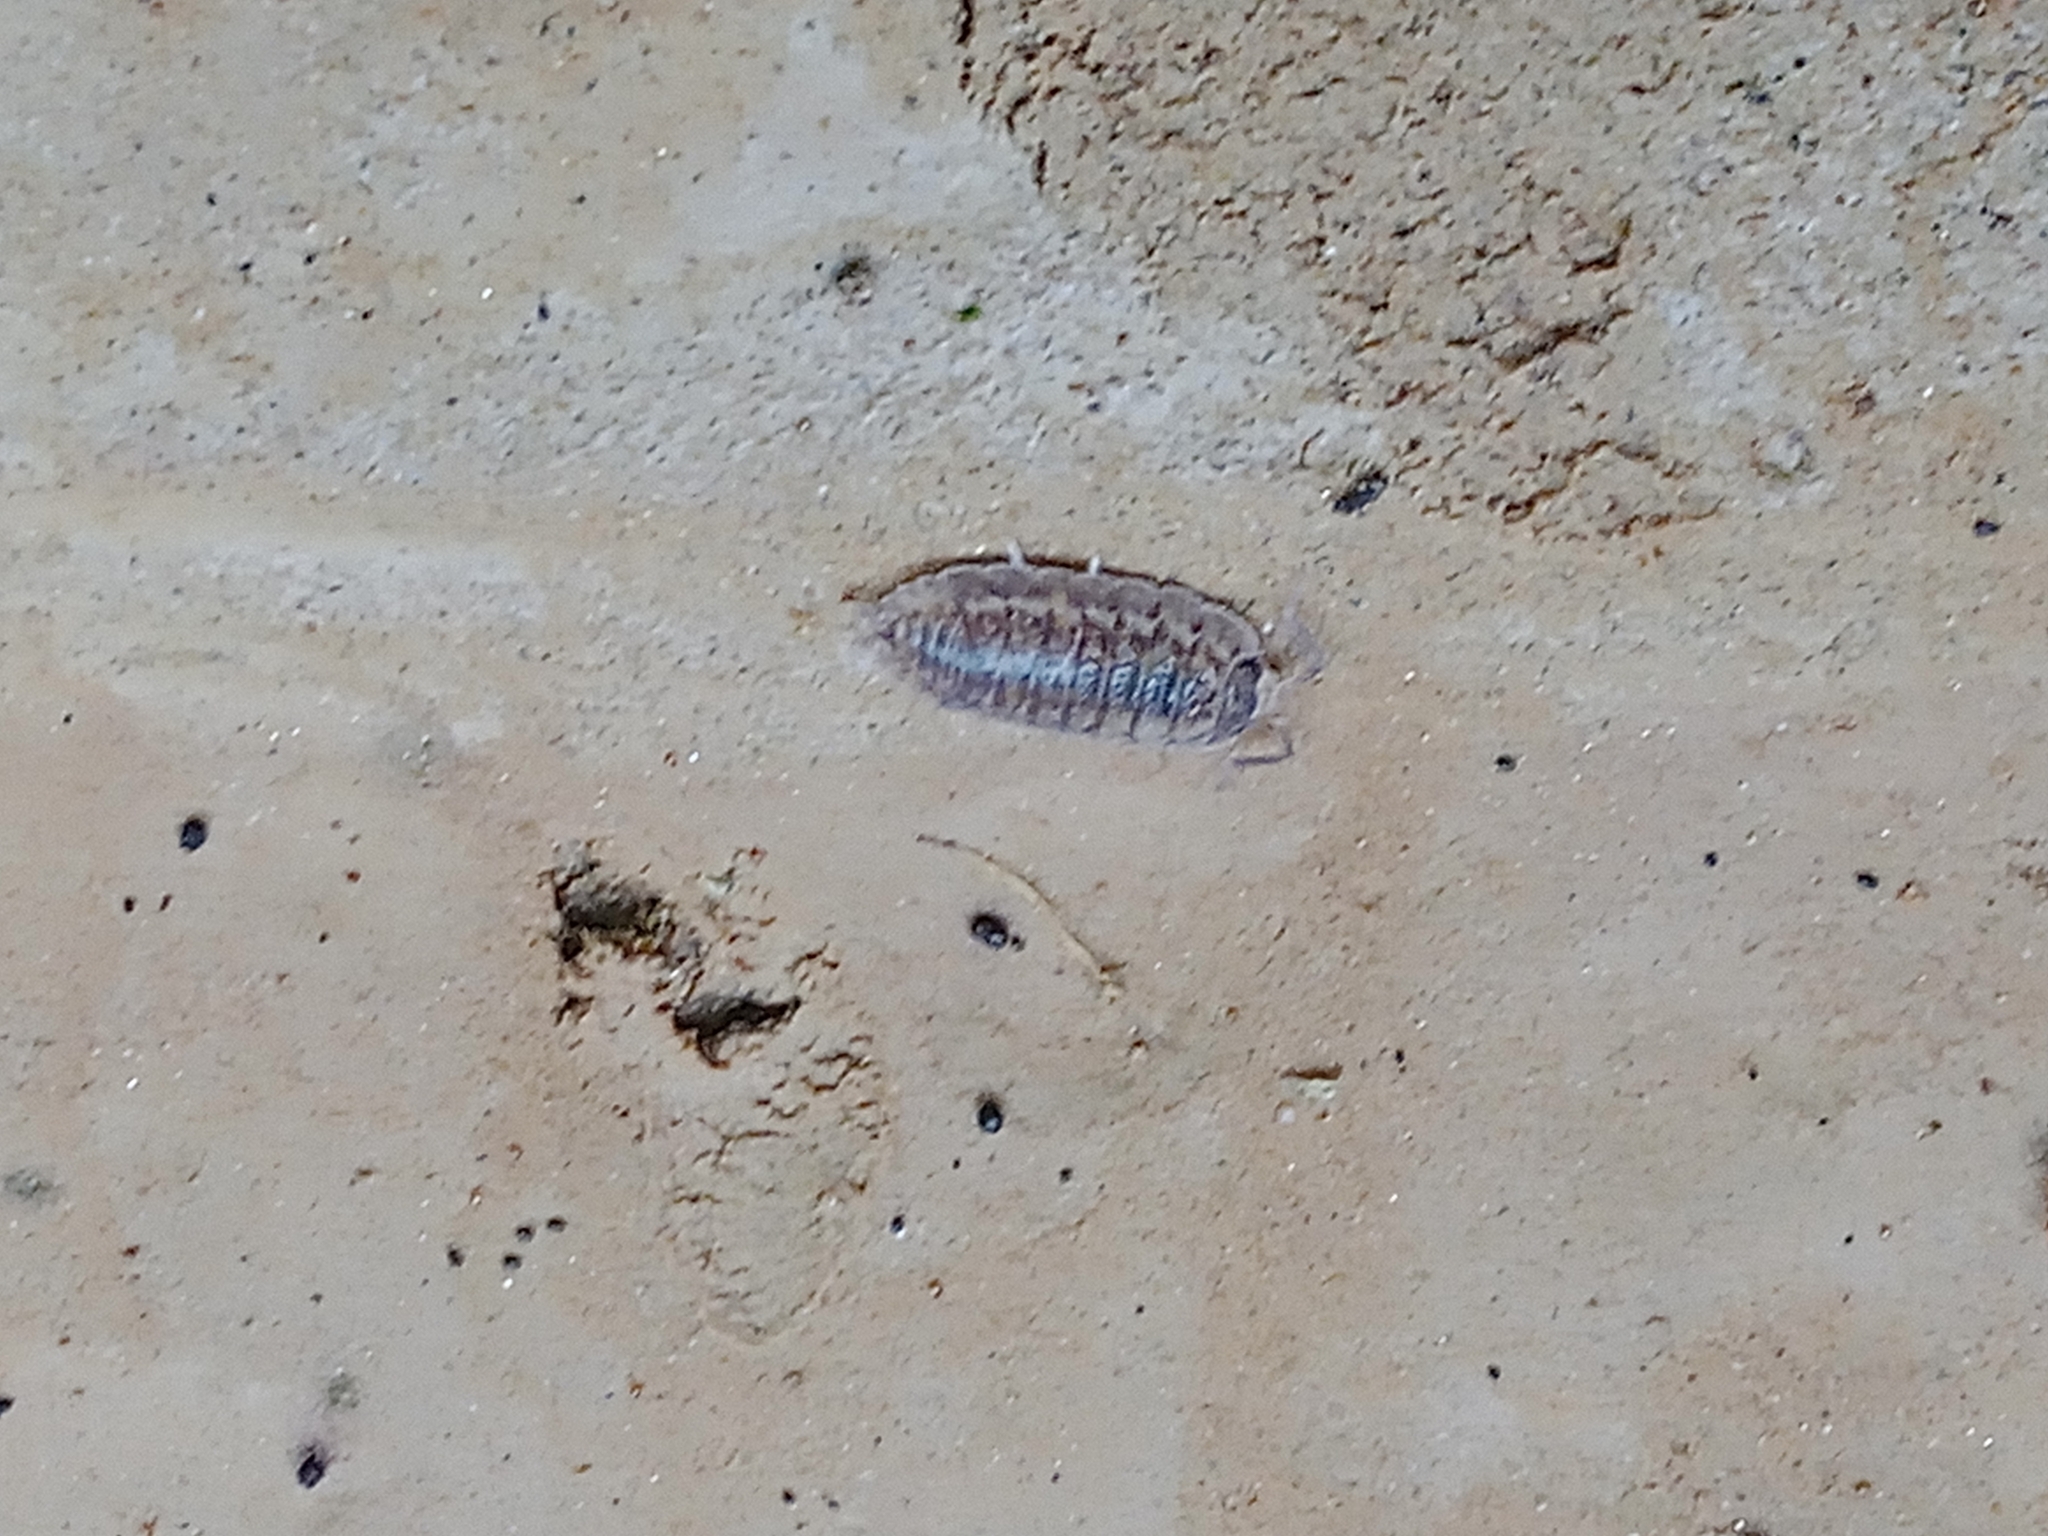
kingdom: Animalia
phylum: Arthropoda
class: Malacostraca
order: Isopoda
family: Trachelipodidae
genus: Trachelipus
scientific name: Trachelipus rathkii
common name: Isopod
